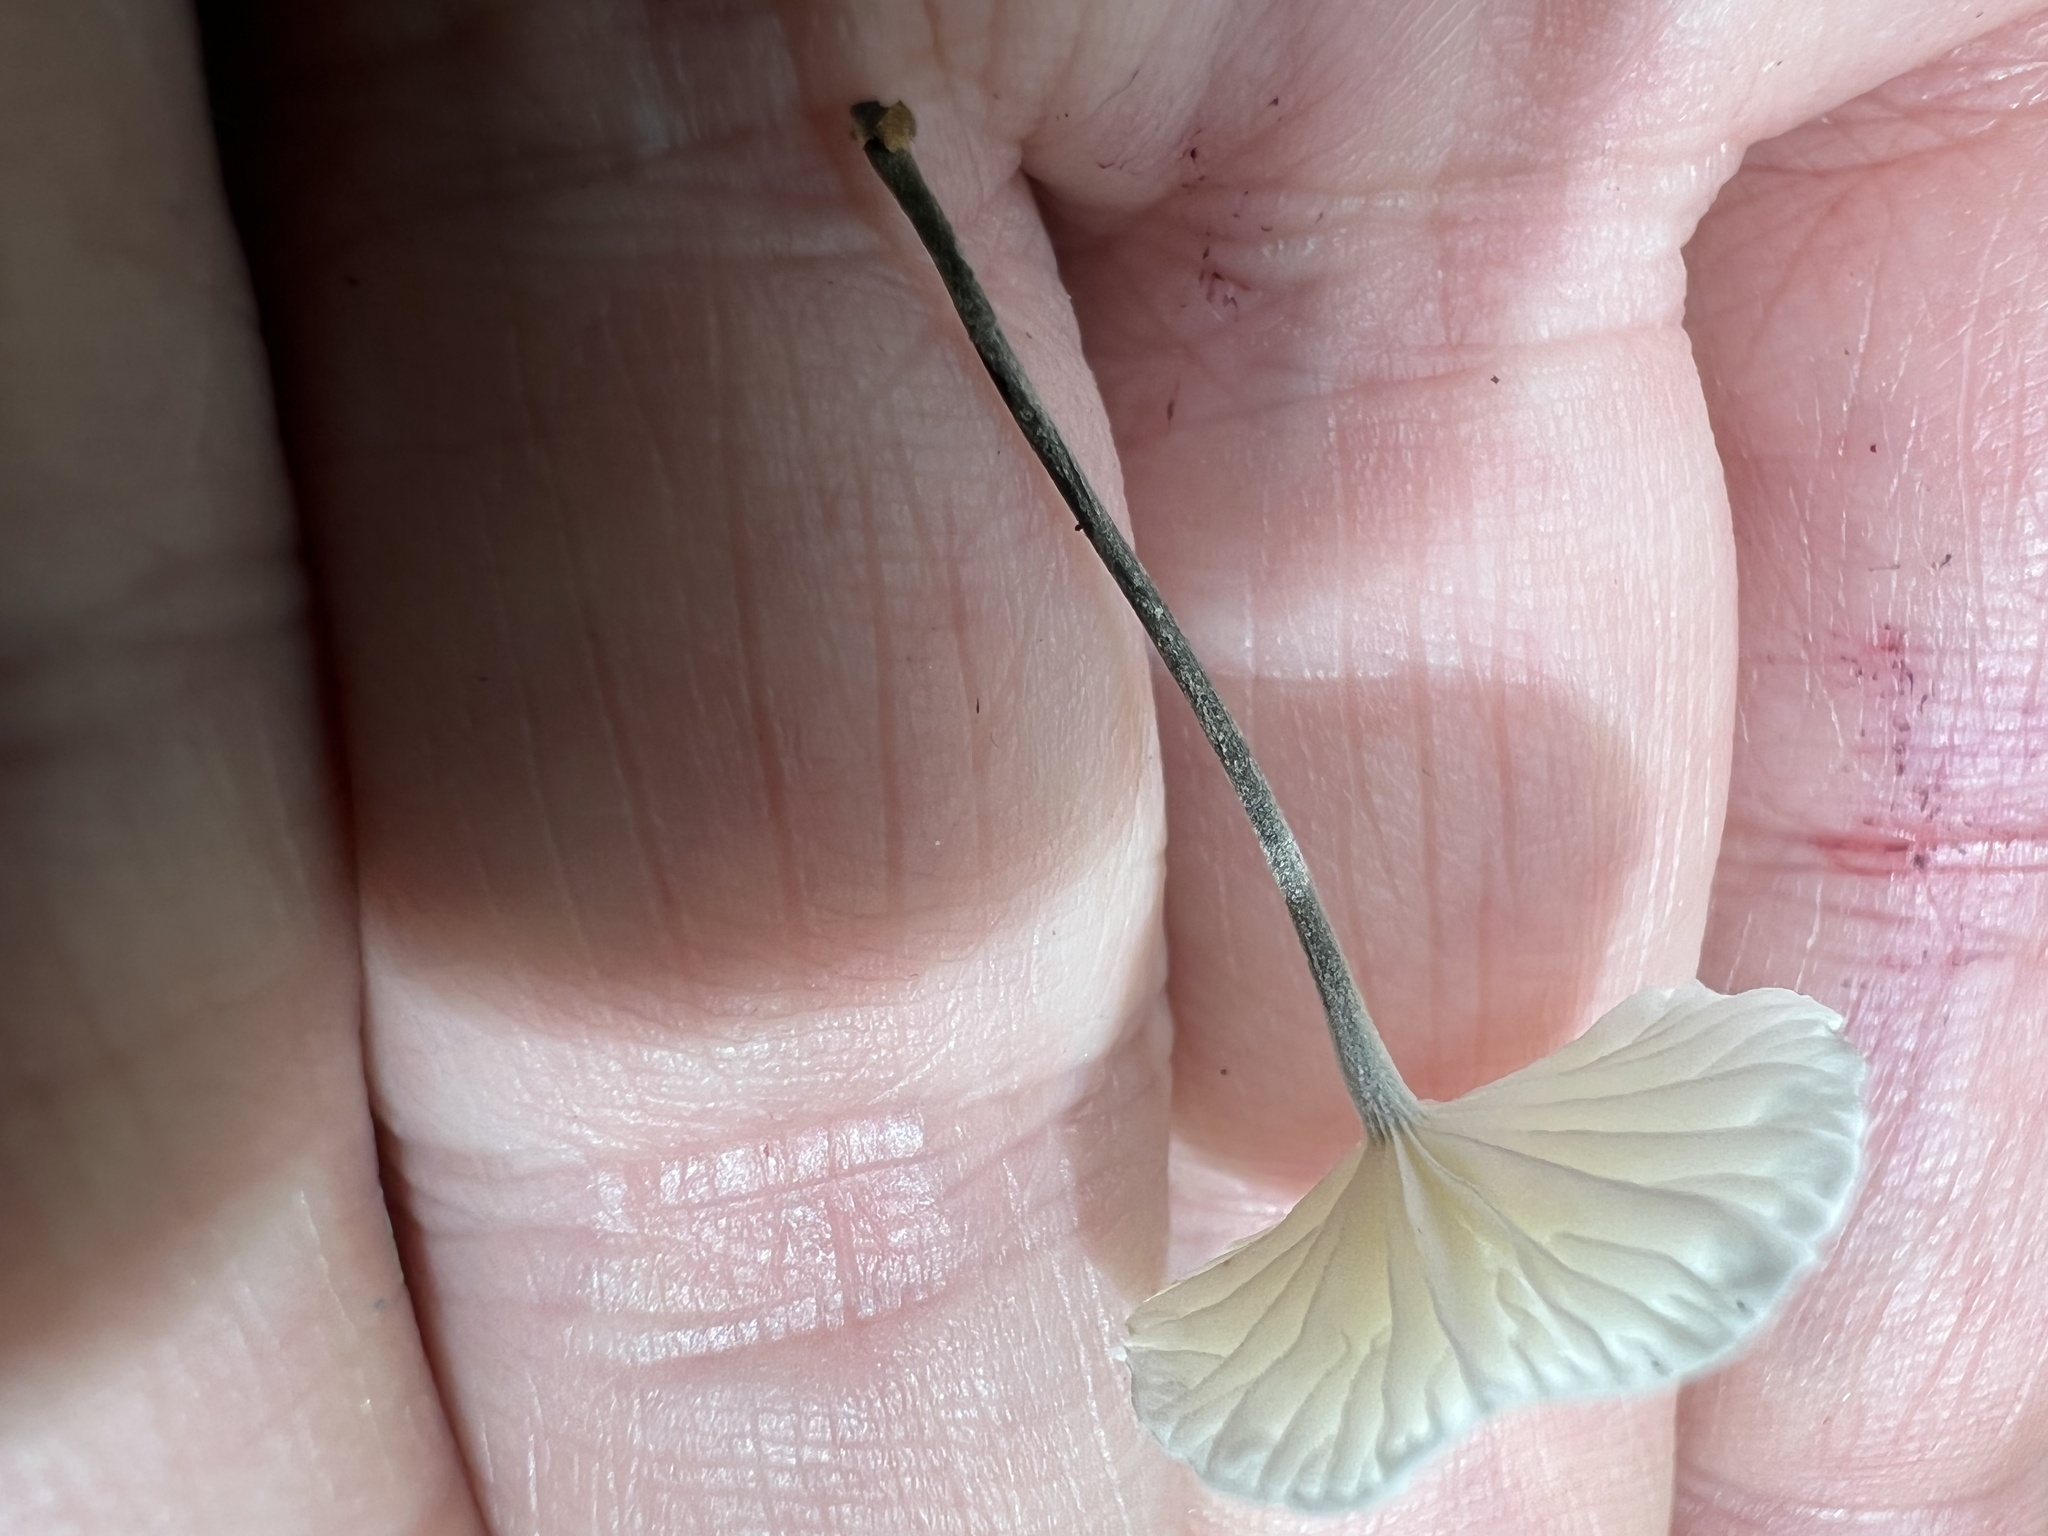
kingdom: Fungi
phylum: Basidiomycota
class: Agaricomycetes
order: Agaricales
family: Marasmiaceae
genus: Tetrapyrgos
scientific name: Tetrapyrgos nigripes
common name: Black-stalked marasmius
